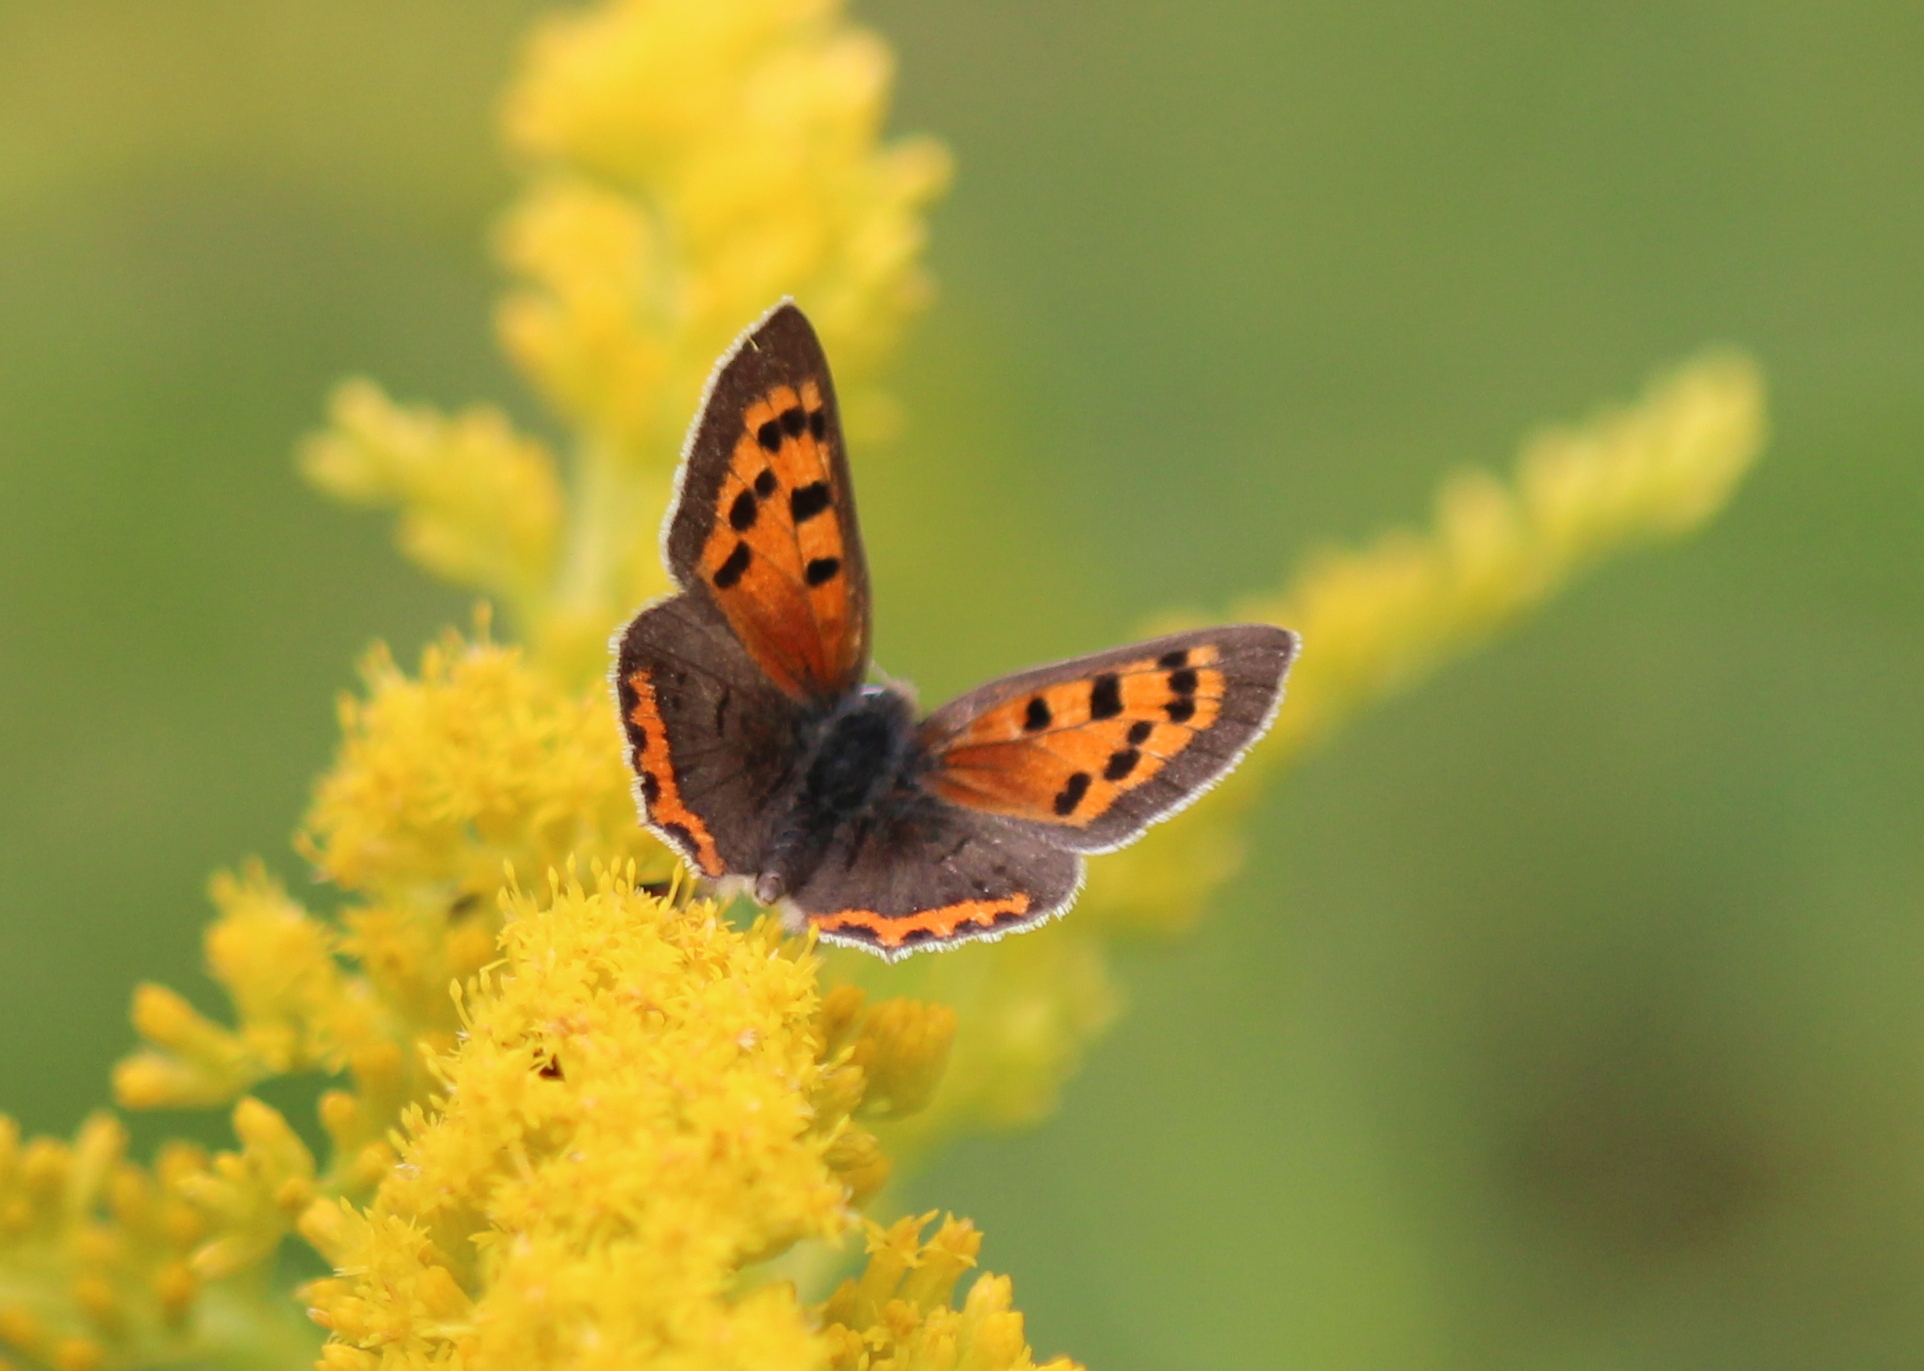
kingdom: Animalia
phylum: Arthropoda
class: Insecta
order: Lepidoptera
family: Lycaenidae
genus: Lycaena
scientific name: Lycaena hypophlaeas
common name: American copper
